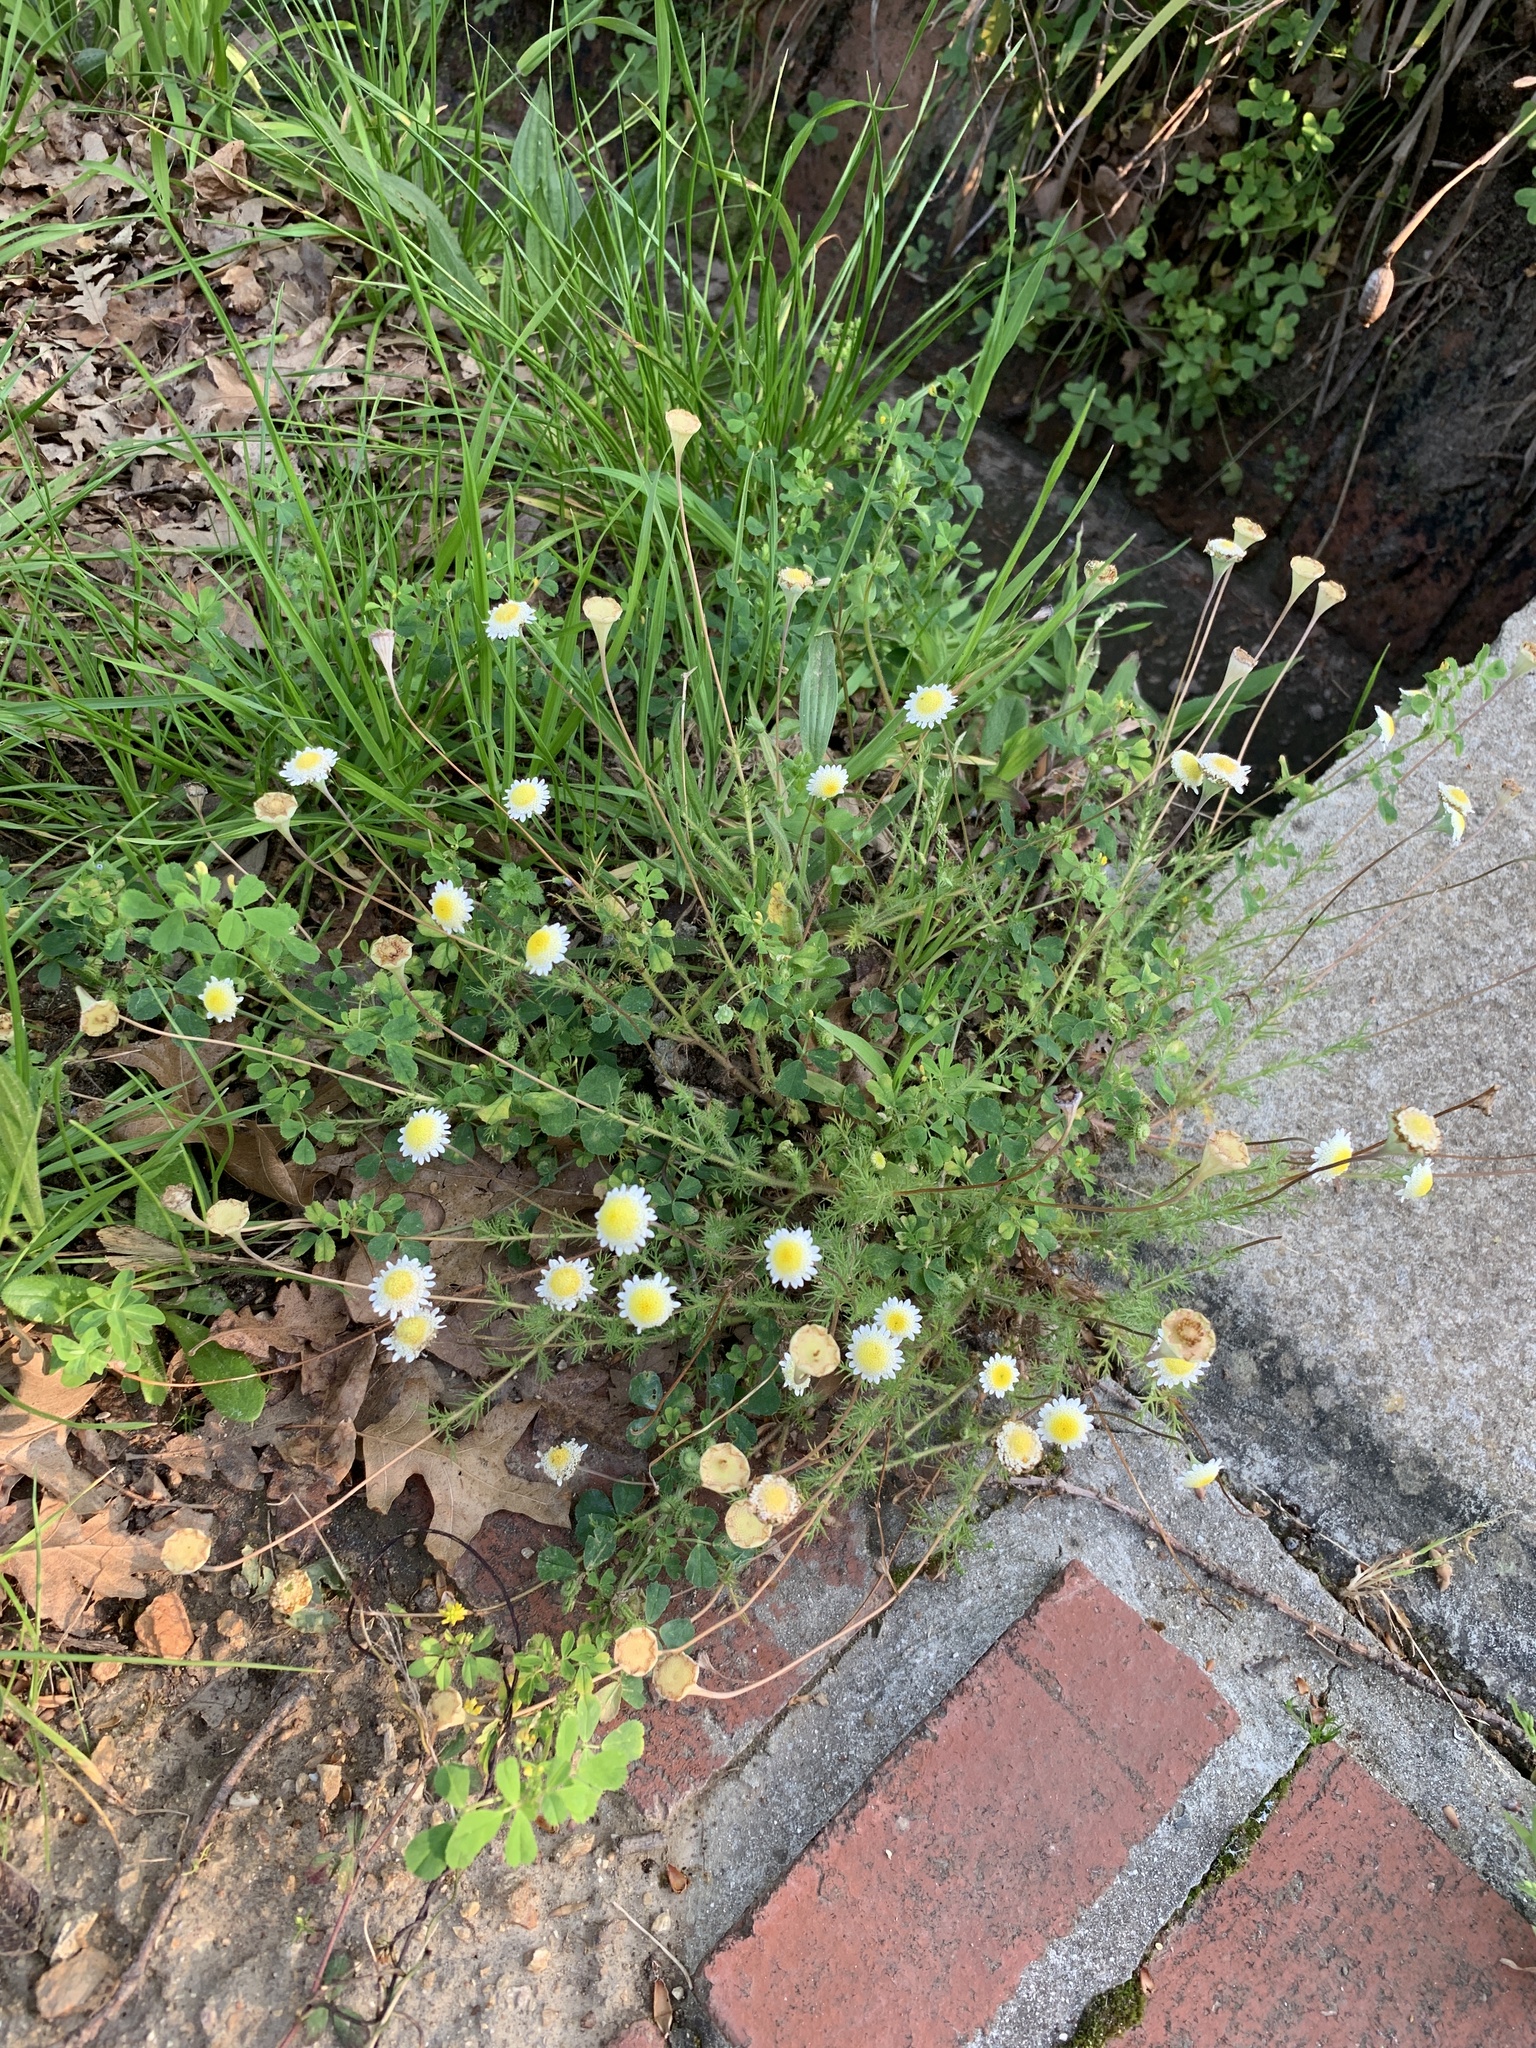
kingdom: Plantae
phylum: Tracheophyta
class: Magnoliopsida
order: Asterales
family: Asteraceae
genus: Cotula
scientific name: Cotula turbinata
